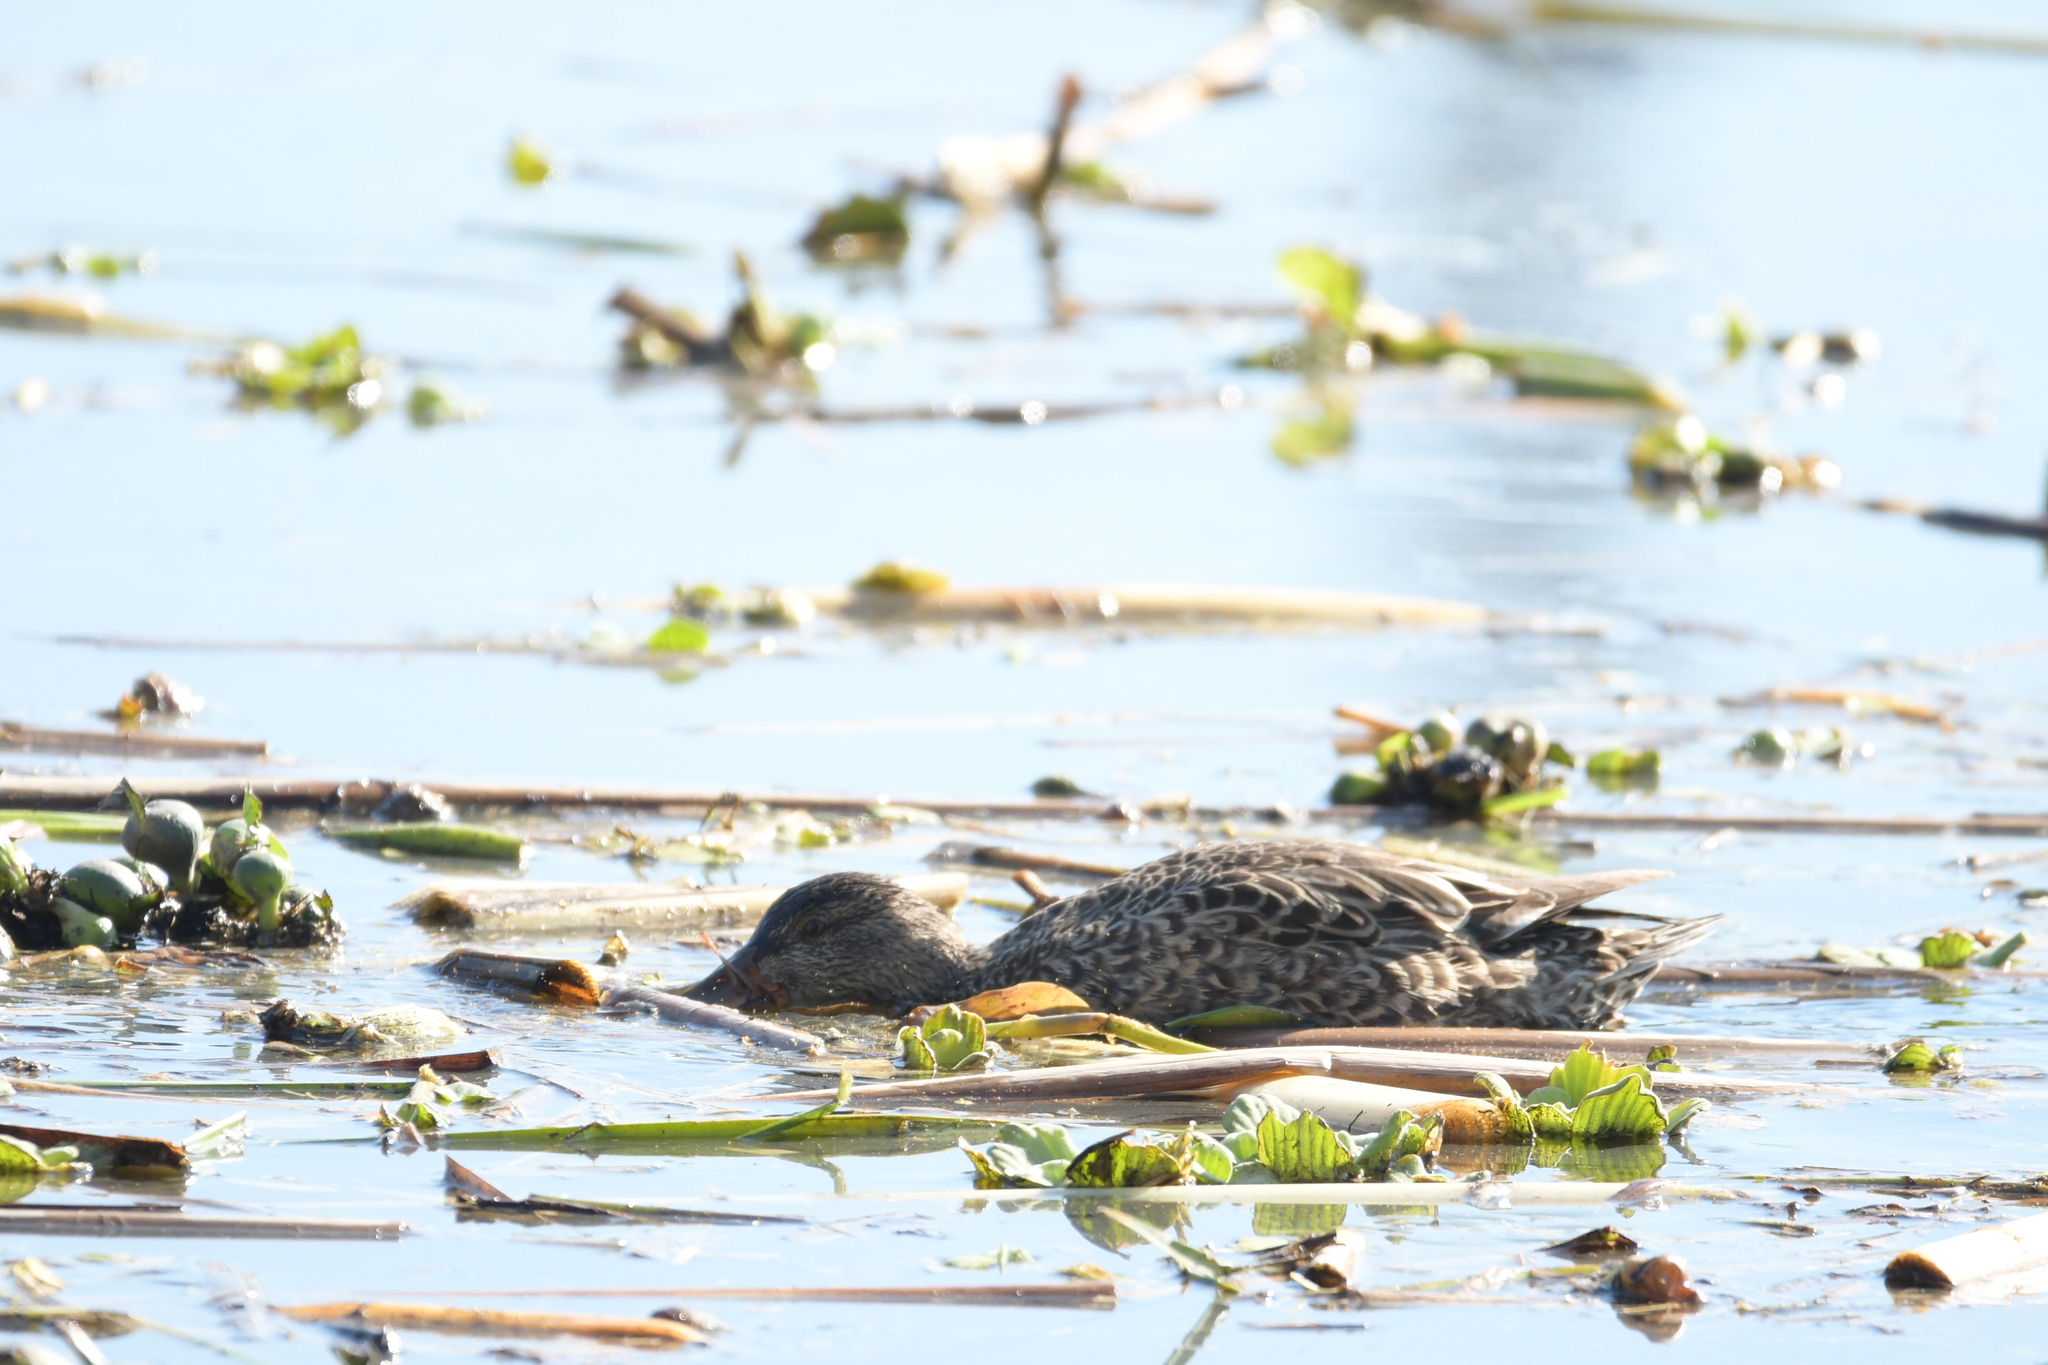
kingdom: Animalia
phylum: Chordata
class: Aves
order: Anseriformes
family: Anatidae
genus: Spatula
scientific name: Spatula clypeata
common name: Northern shoveler
